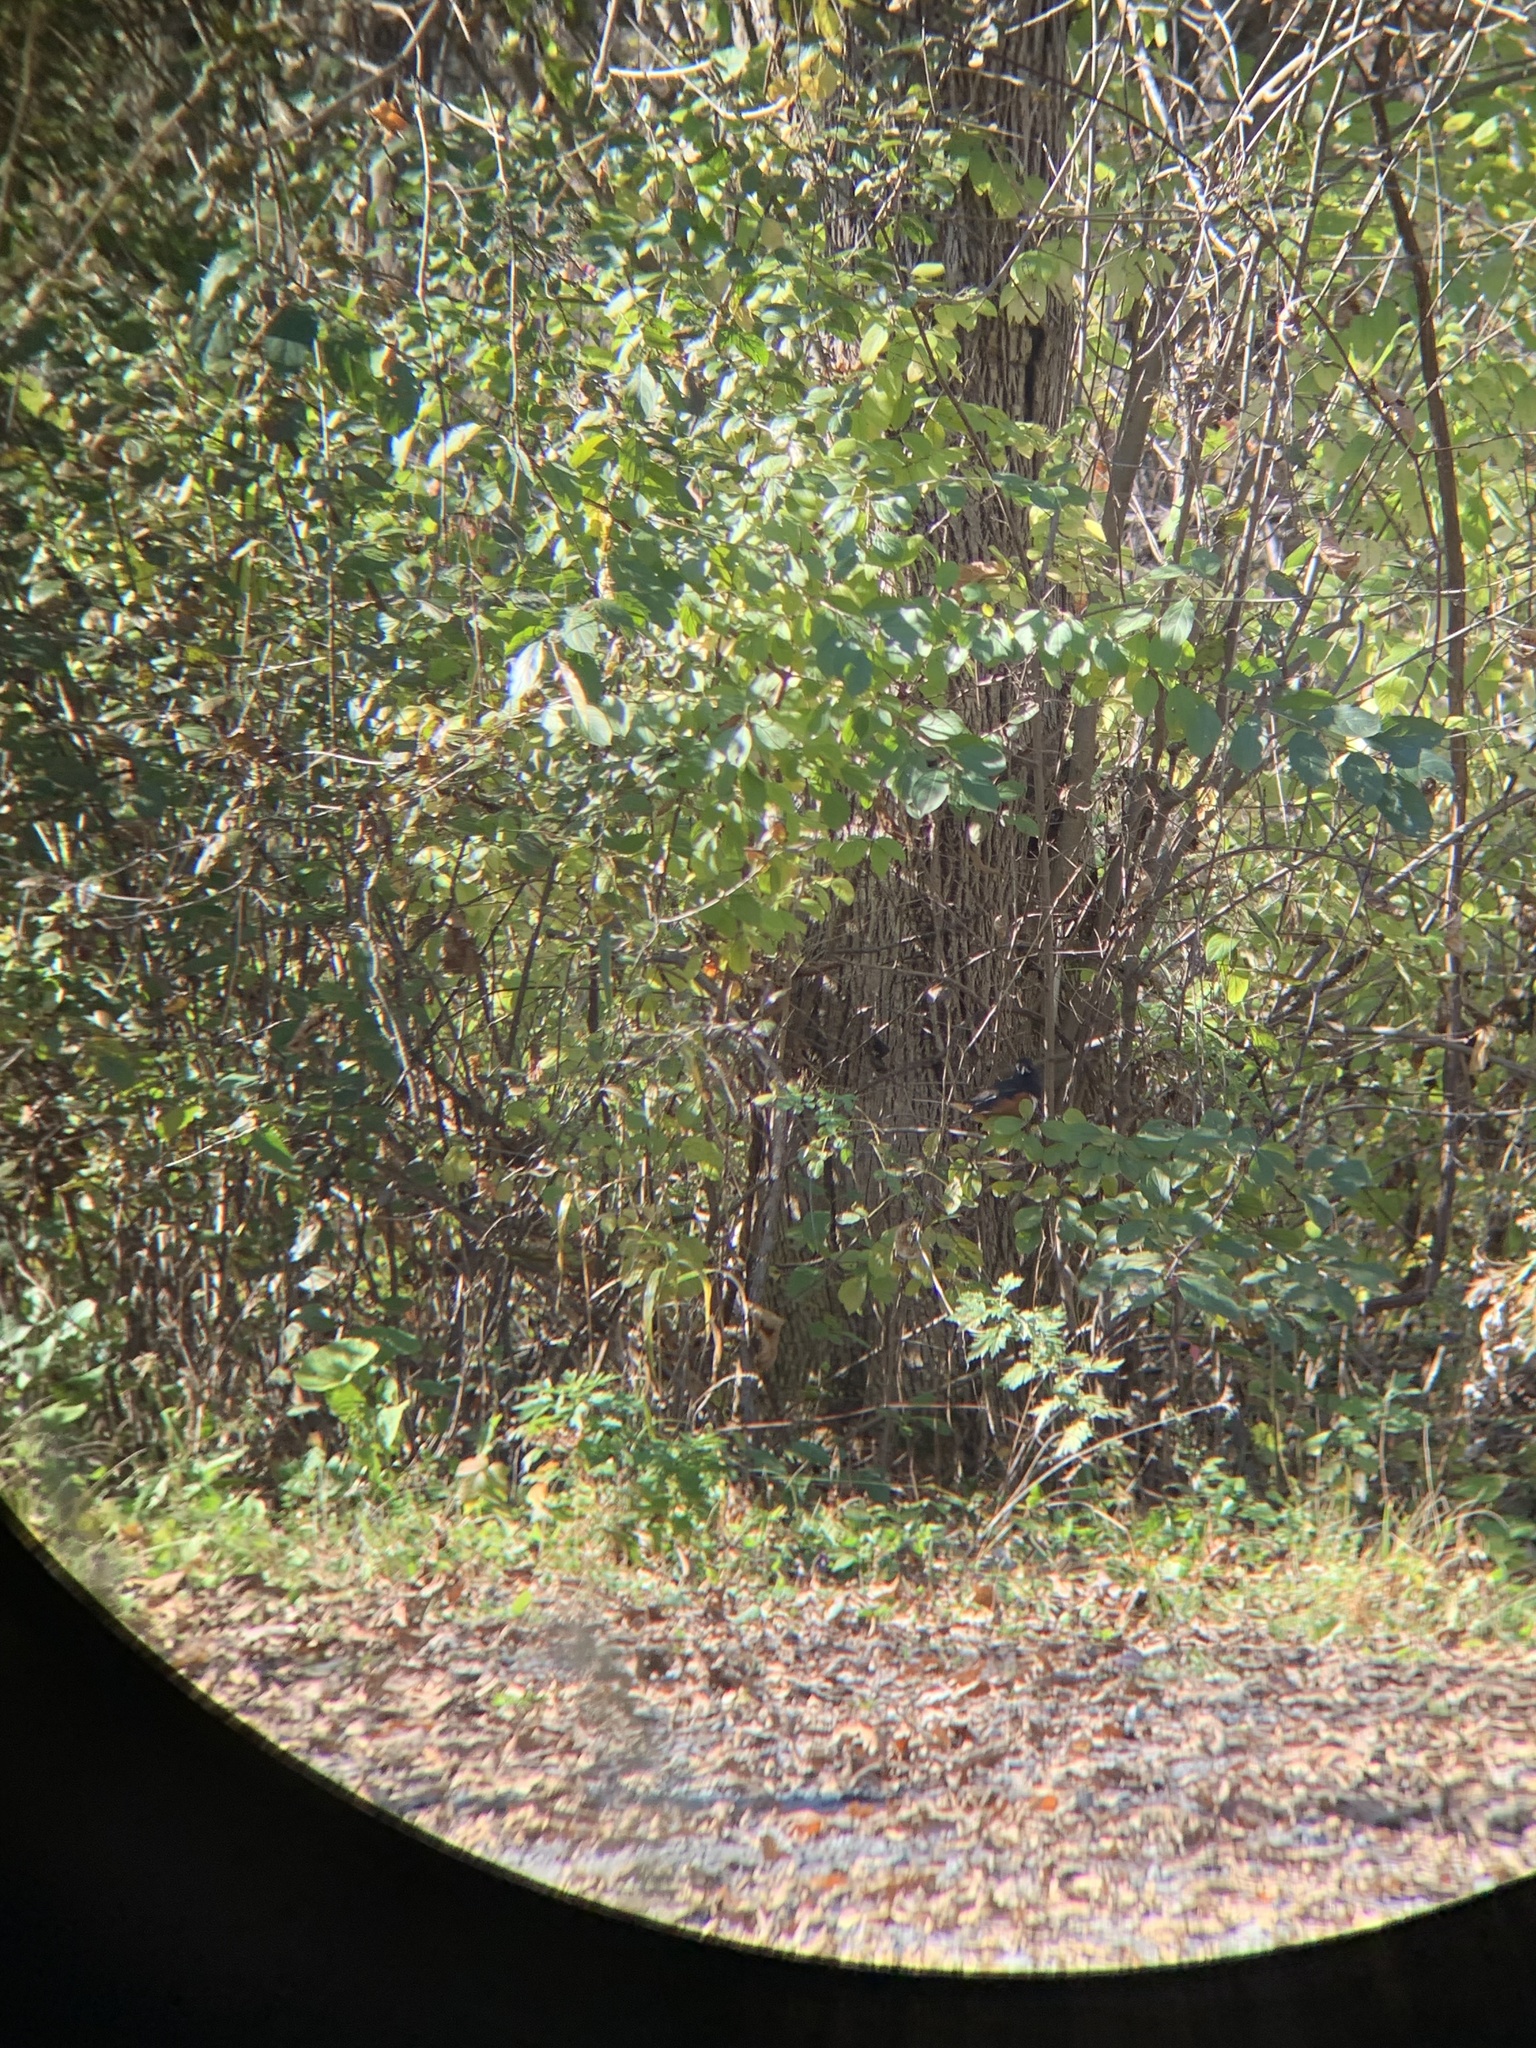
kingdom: Animalia
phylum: Chordata
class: Aves
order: Passeriformes
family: Passerellidae
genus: Pipilo
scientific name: Pipilo erythrophthalmus
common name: Eastern towhee
